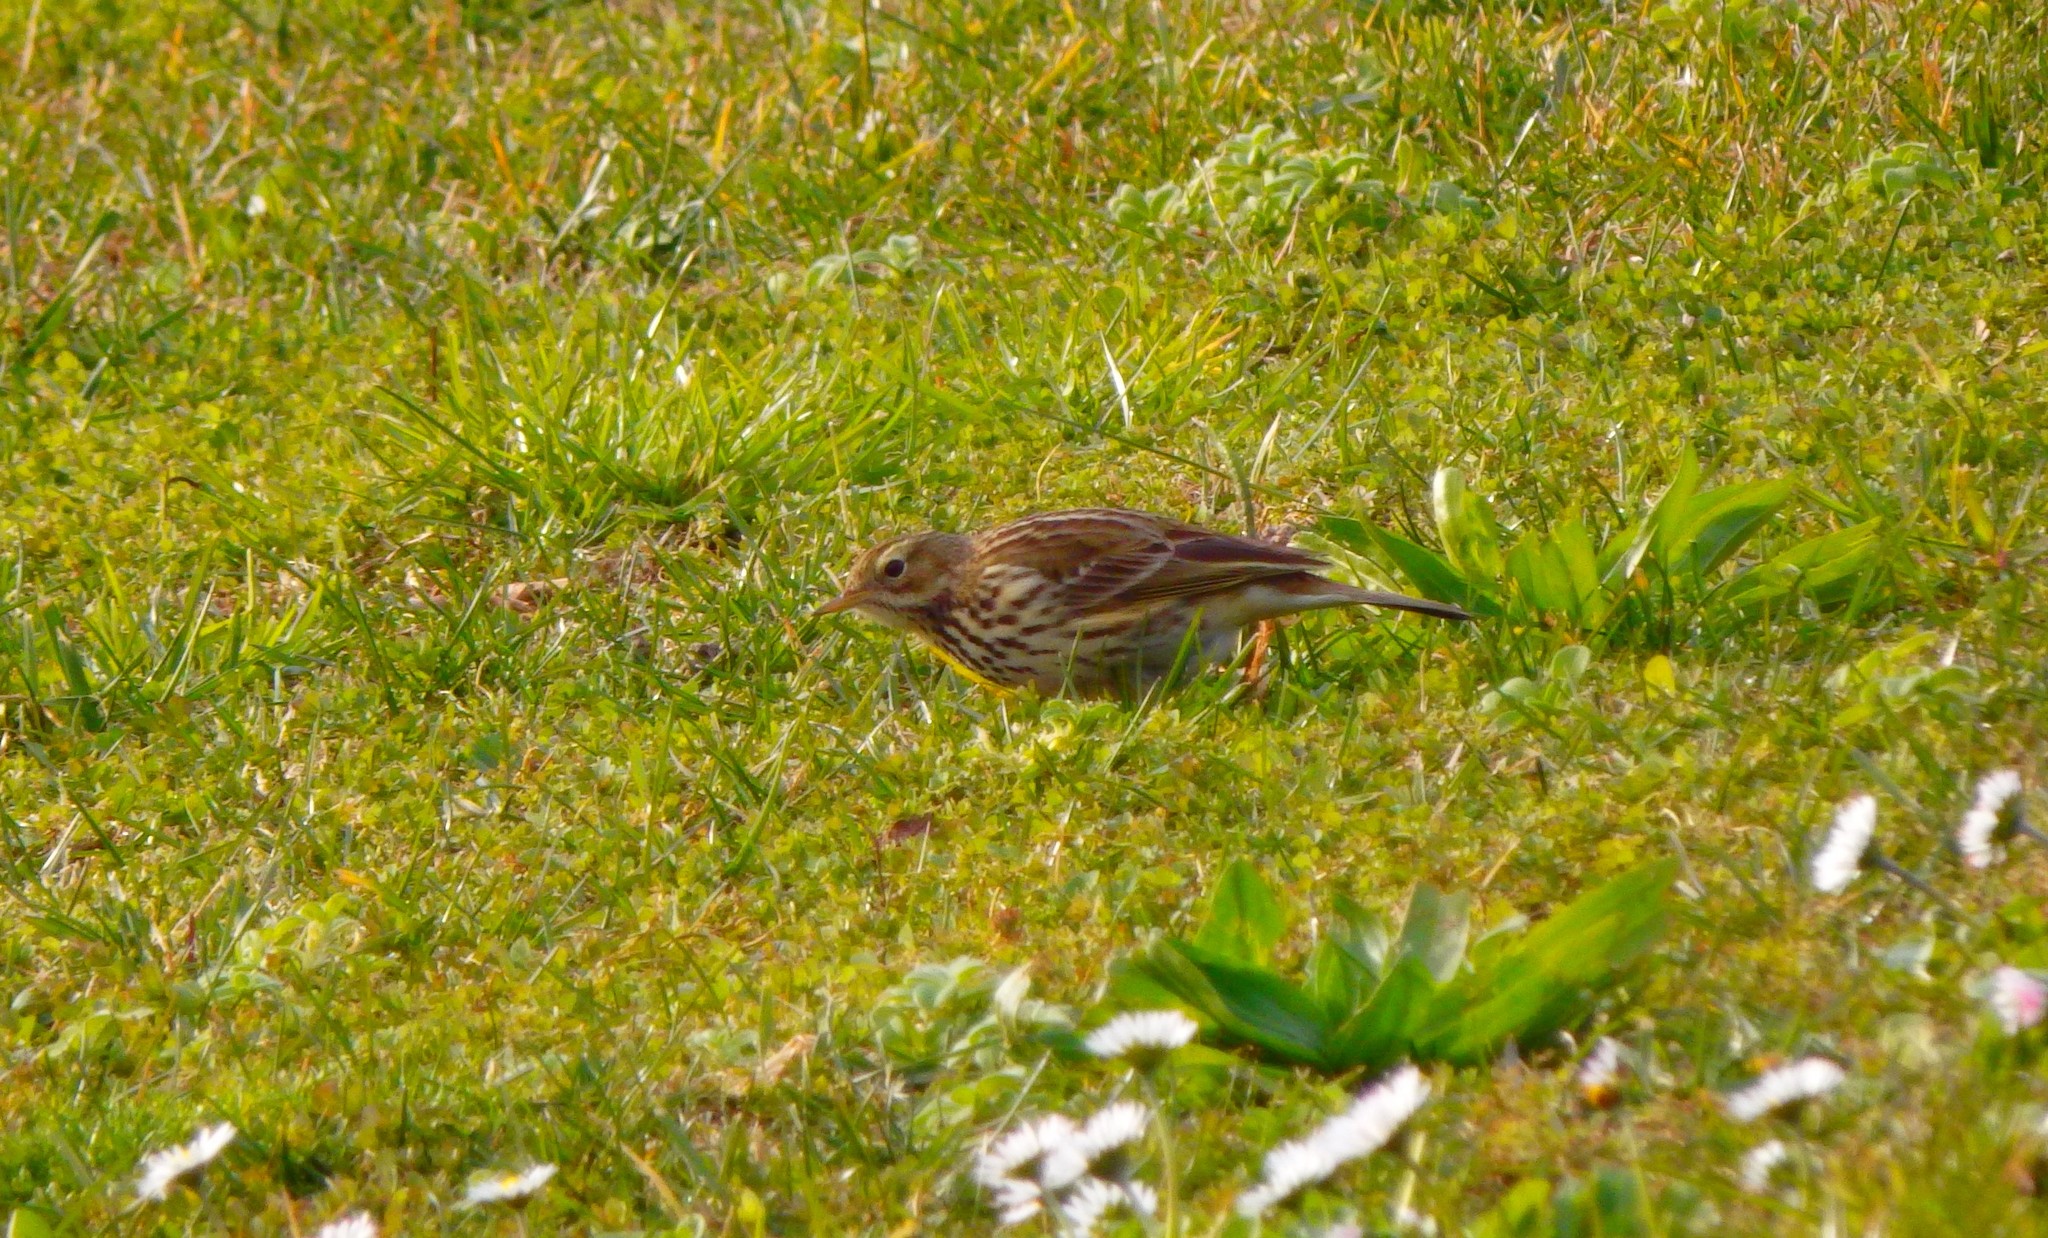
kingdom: Animalia
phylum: Chordata
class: Aves
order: Passeriformes
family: Motacillidae
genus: Anthus
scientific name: Anthus pratensis
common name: Meadow pipit
